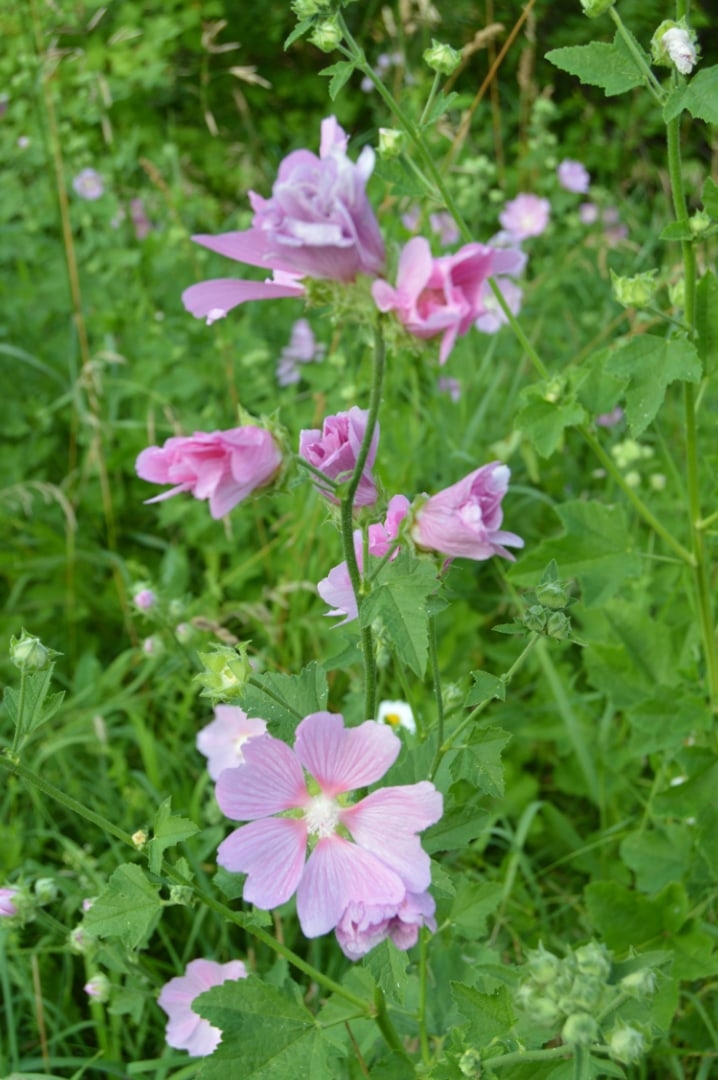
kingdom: Plantae
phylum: Tracheophyta
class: Magnoliopsida
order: Malvales
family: Malvaceae
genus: Malva
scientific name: Malva thuringiaca
